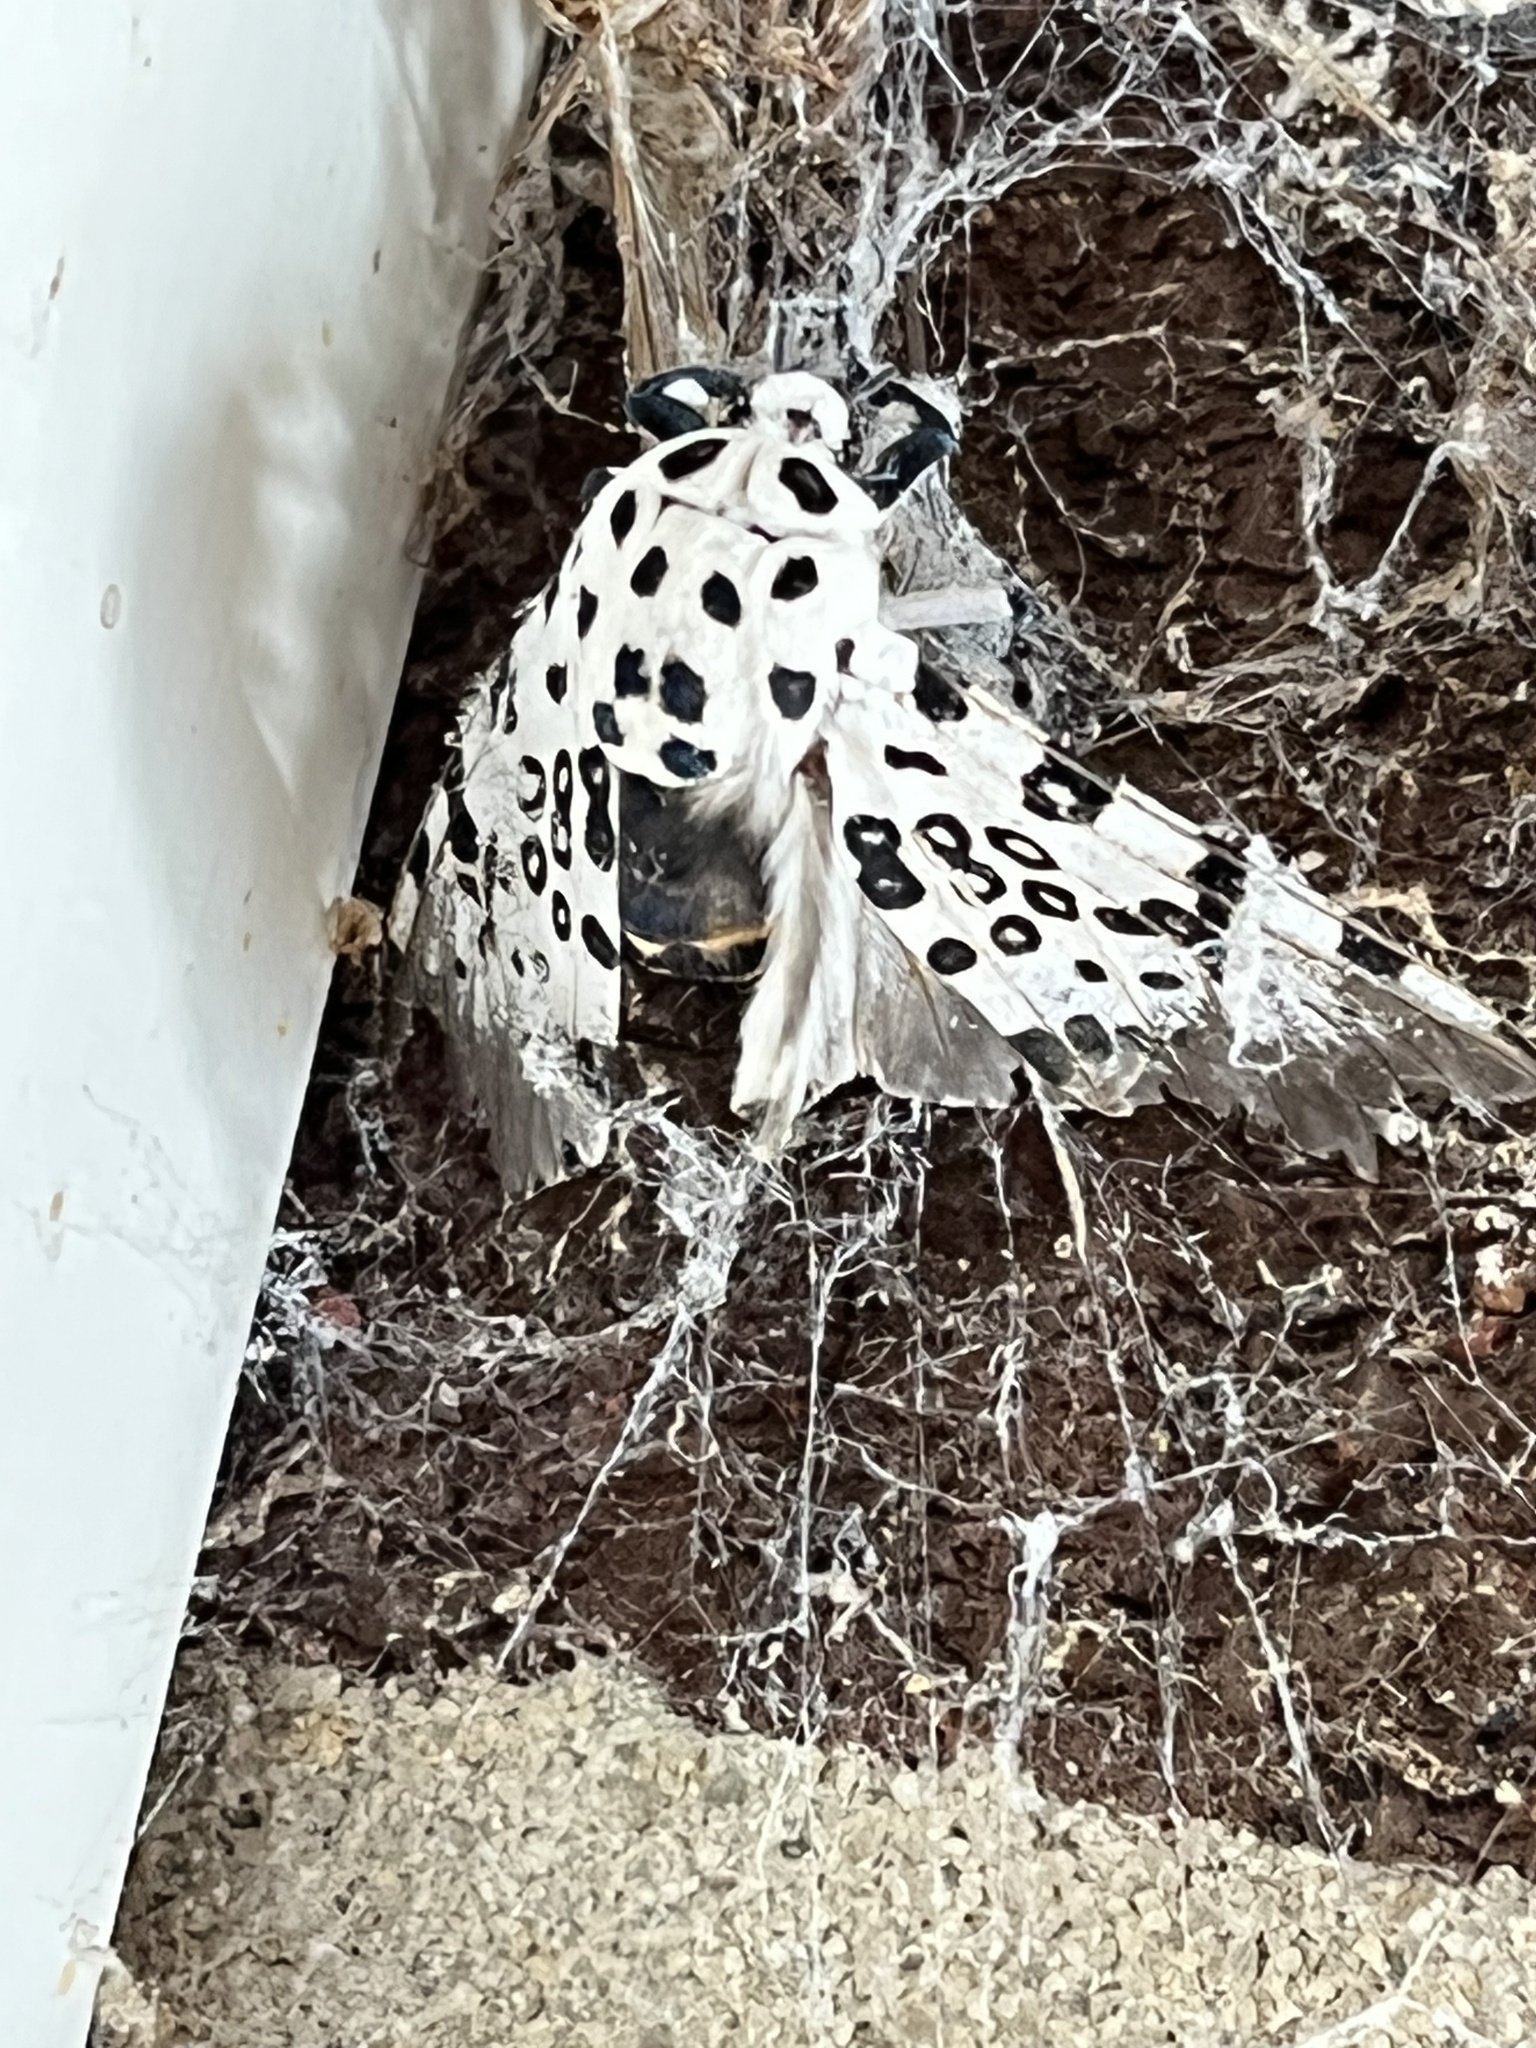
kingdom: Animalia
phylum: Arthropoda
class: Insecta
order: Lepidoptera
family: Erebidae
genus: Hypercompe
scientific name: Hypercompe scribonia
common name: Giant leopard moth
